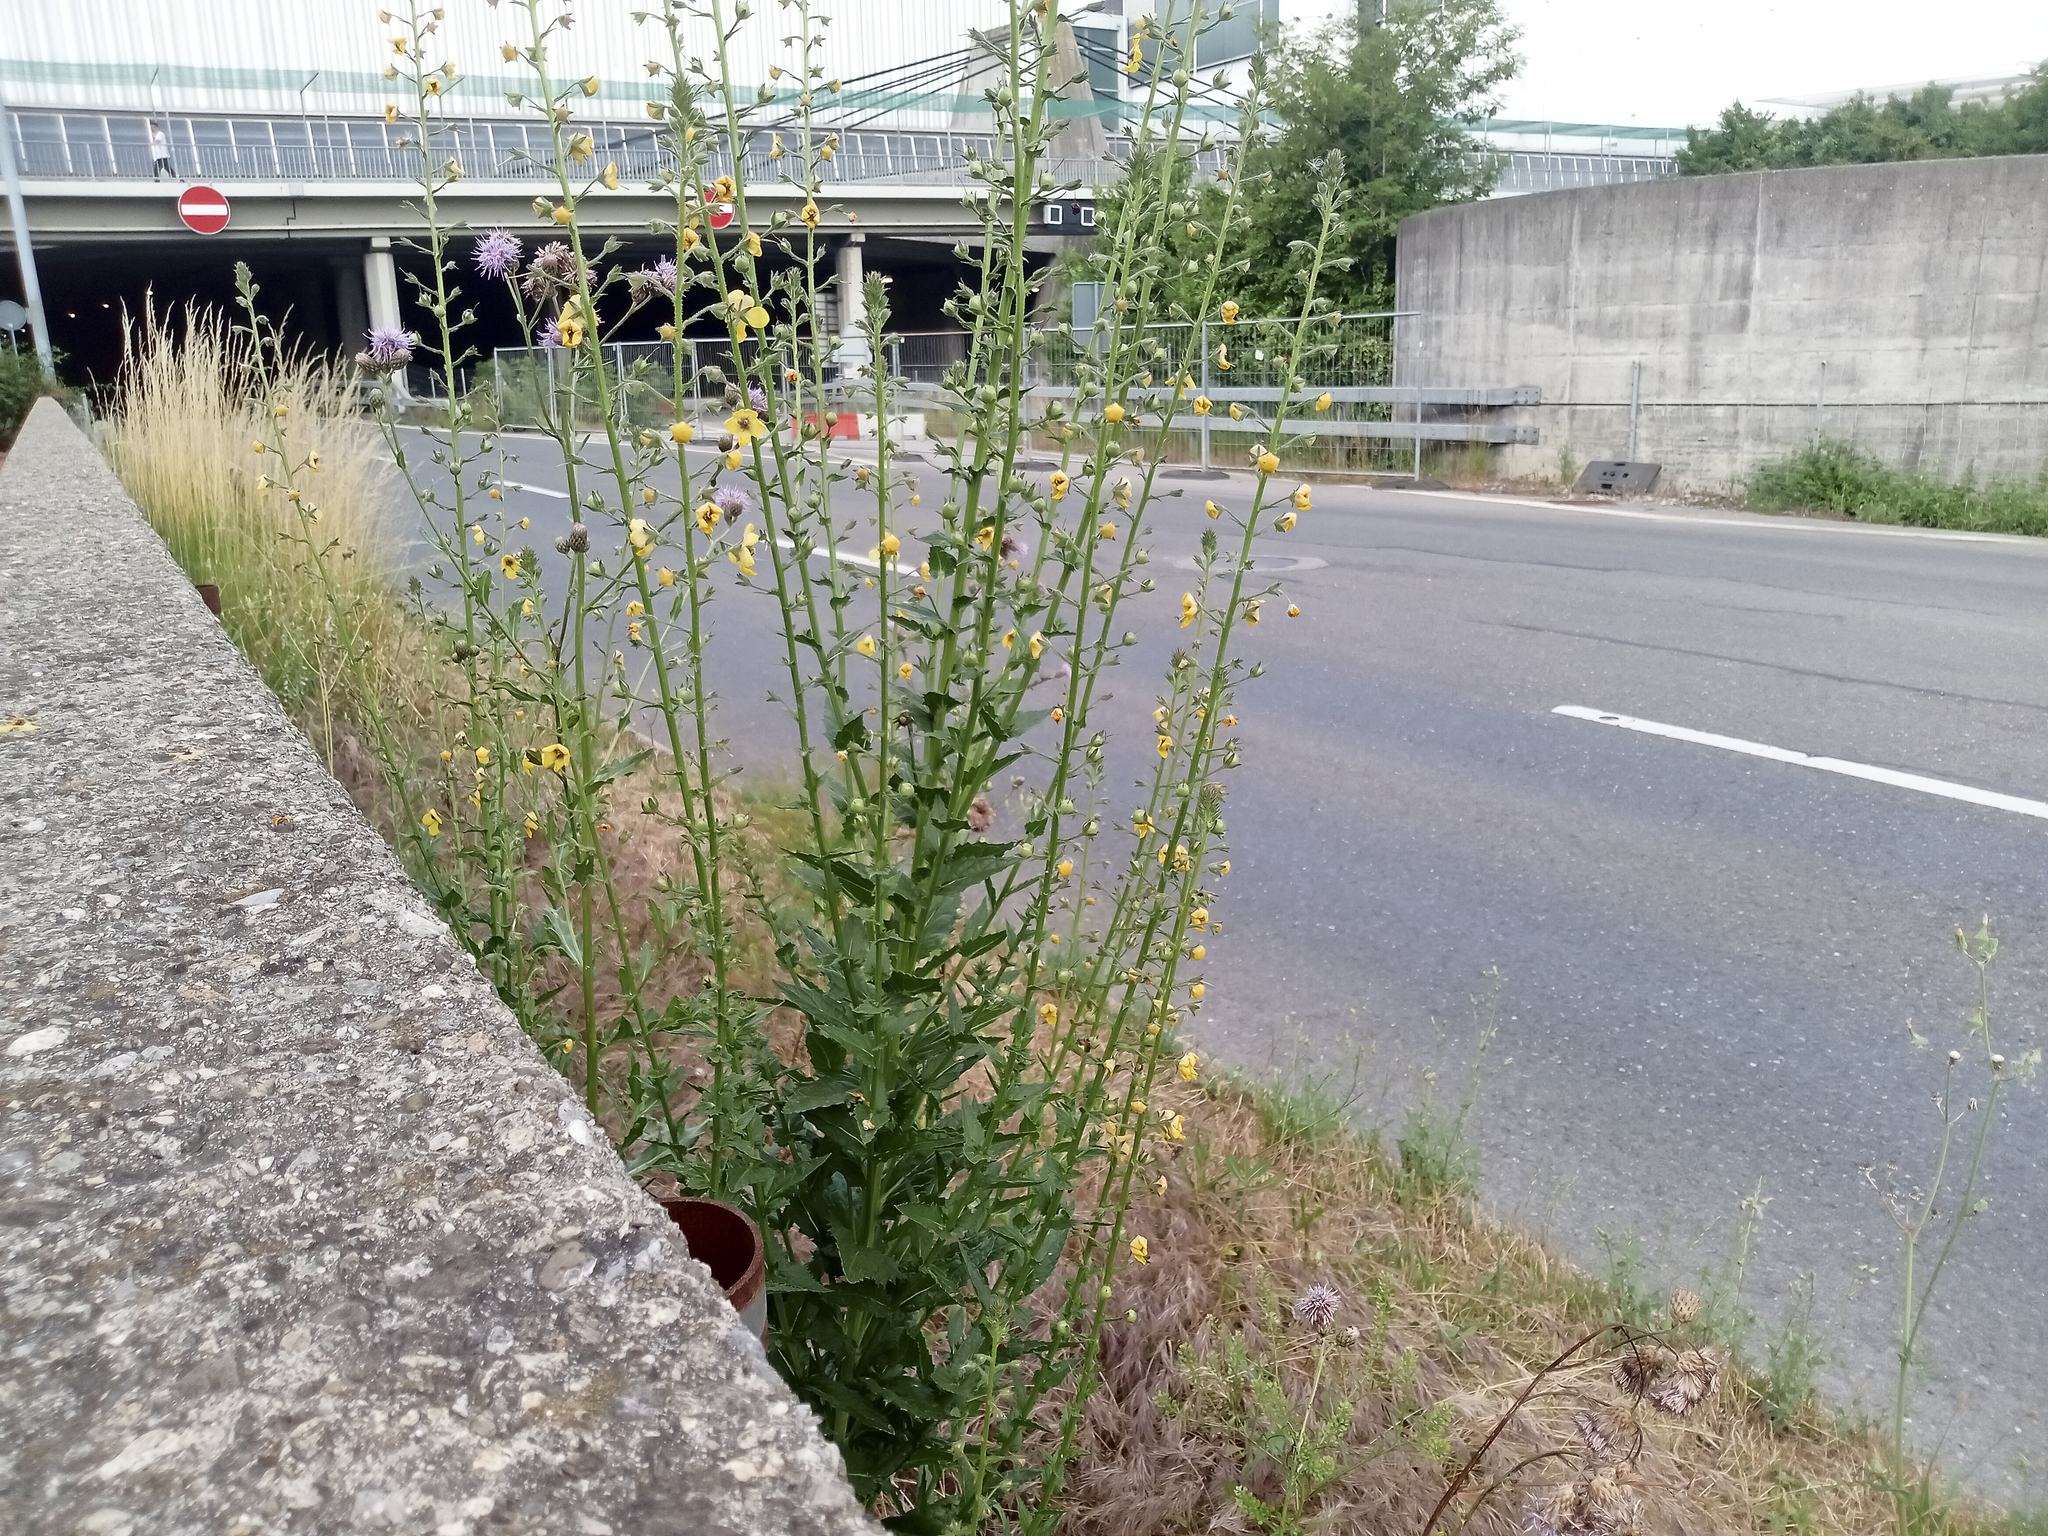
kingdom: Plantae
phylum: Tracheophyta
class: Magnoliopsida
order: Lamiales
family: Scrophulariaceae
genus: Verbascum
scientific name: Verbascum blattaria
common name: Moth mullein
